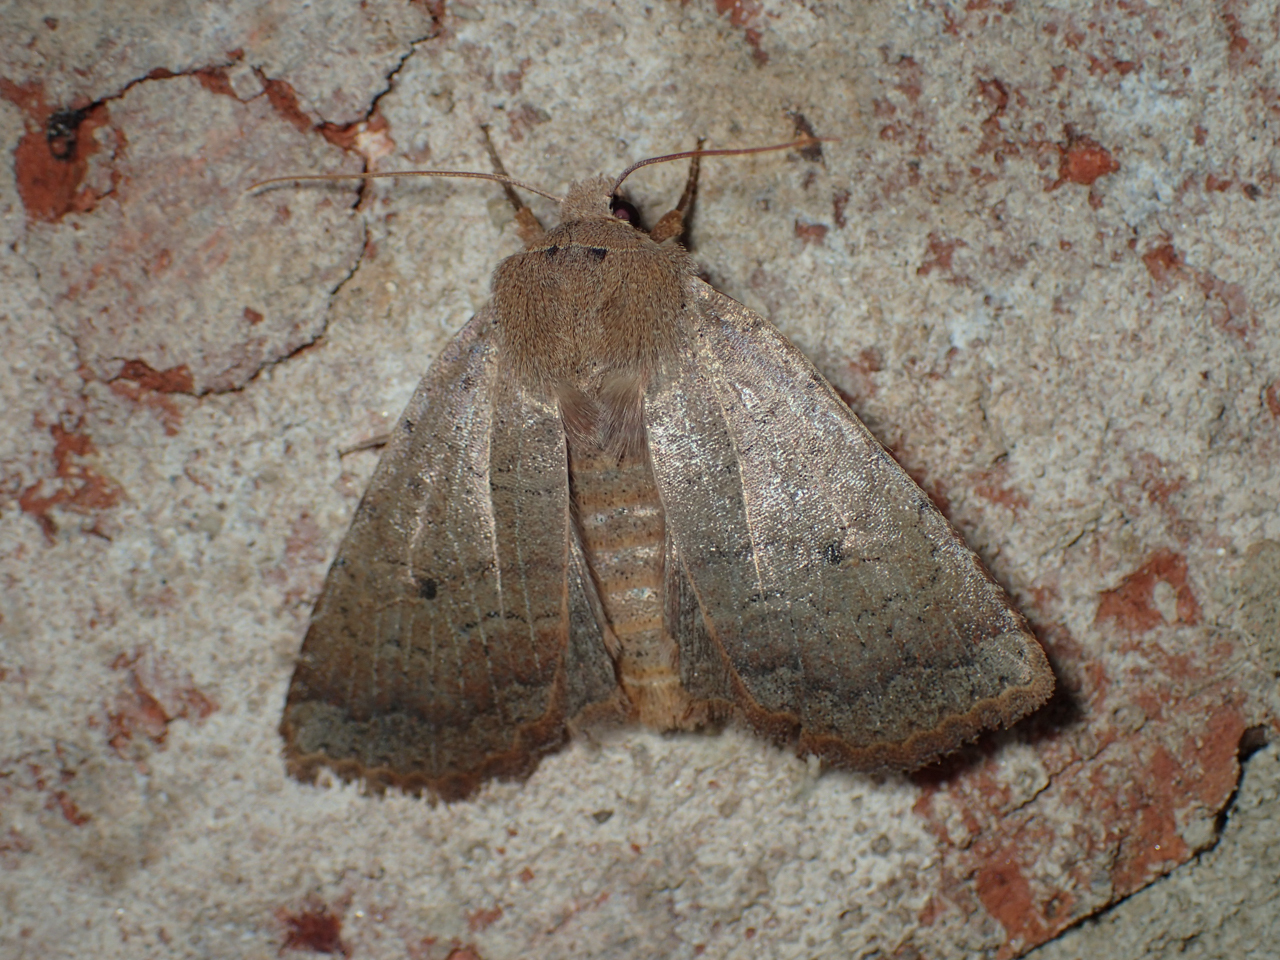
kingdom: Animalia
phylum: Arthropoda
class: Insecta
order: Lepidoptera
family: Noctuidae
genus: Sericaglaea
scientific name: Sericaglaea signata
